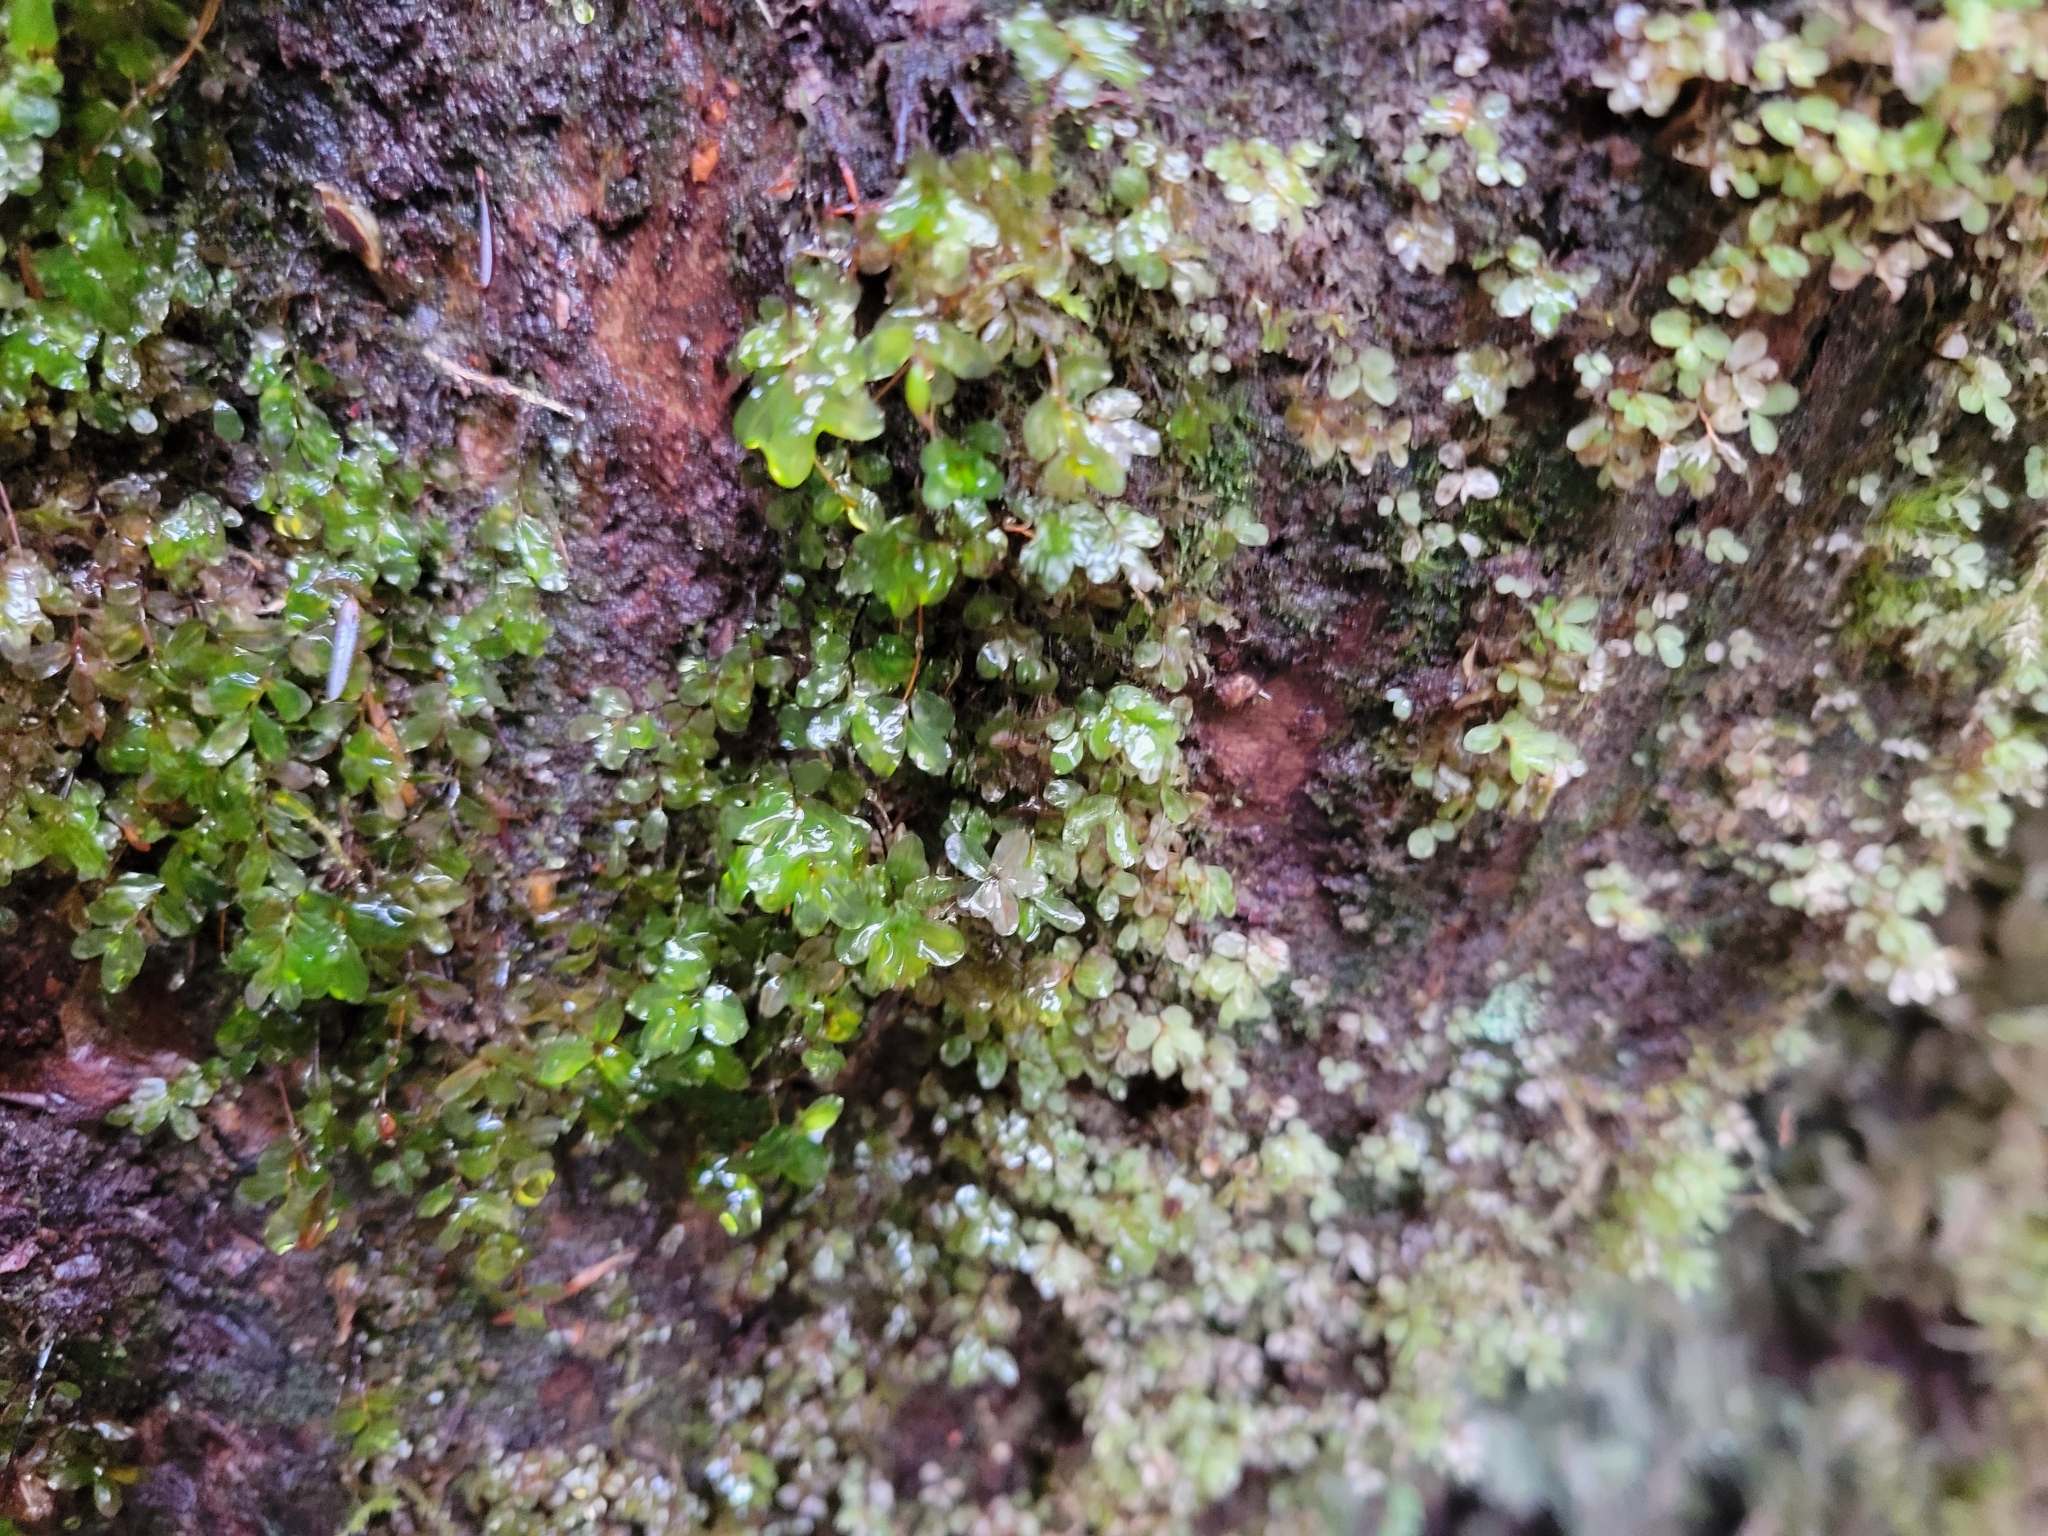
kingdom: Plantae
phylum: Bryophyta
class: Bryopsida
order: Bryales
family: Mniaceae
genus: Rhizomnium
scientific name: Rhizomnium glabrescens
